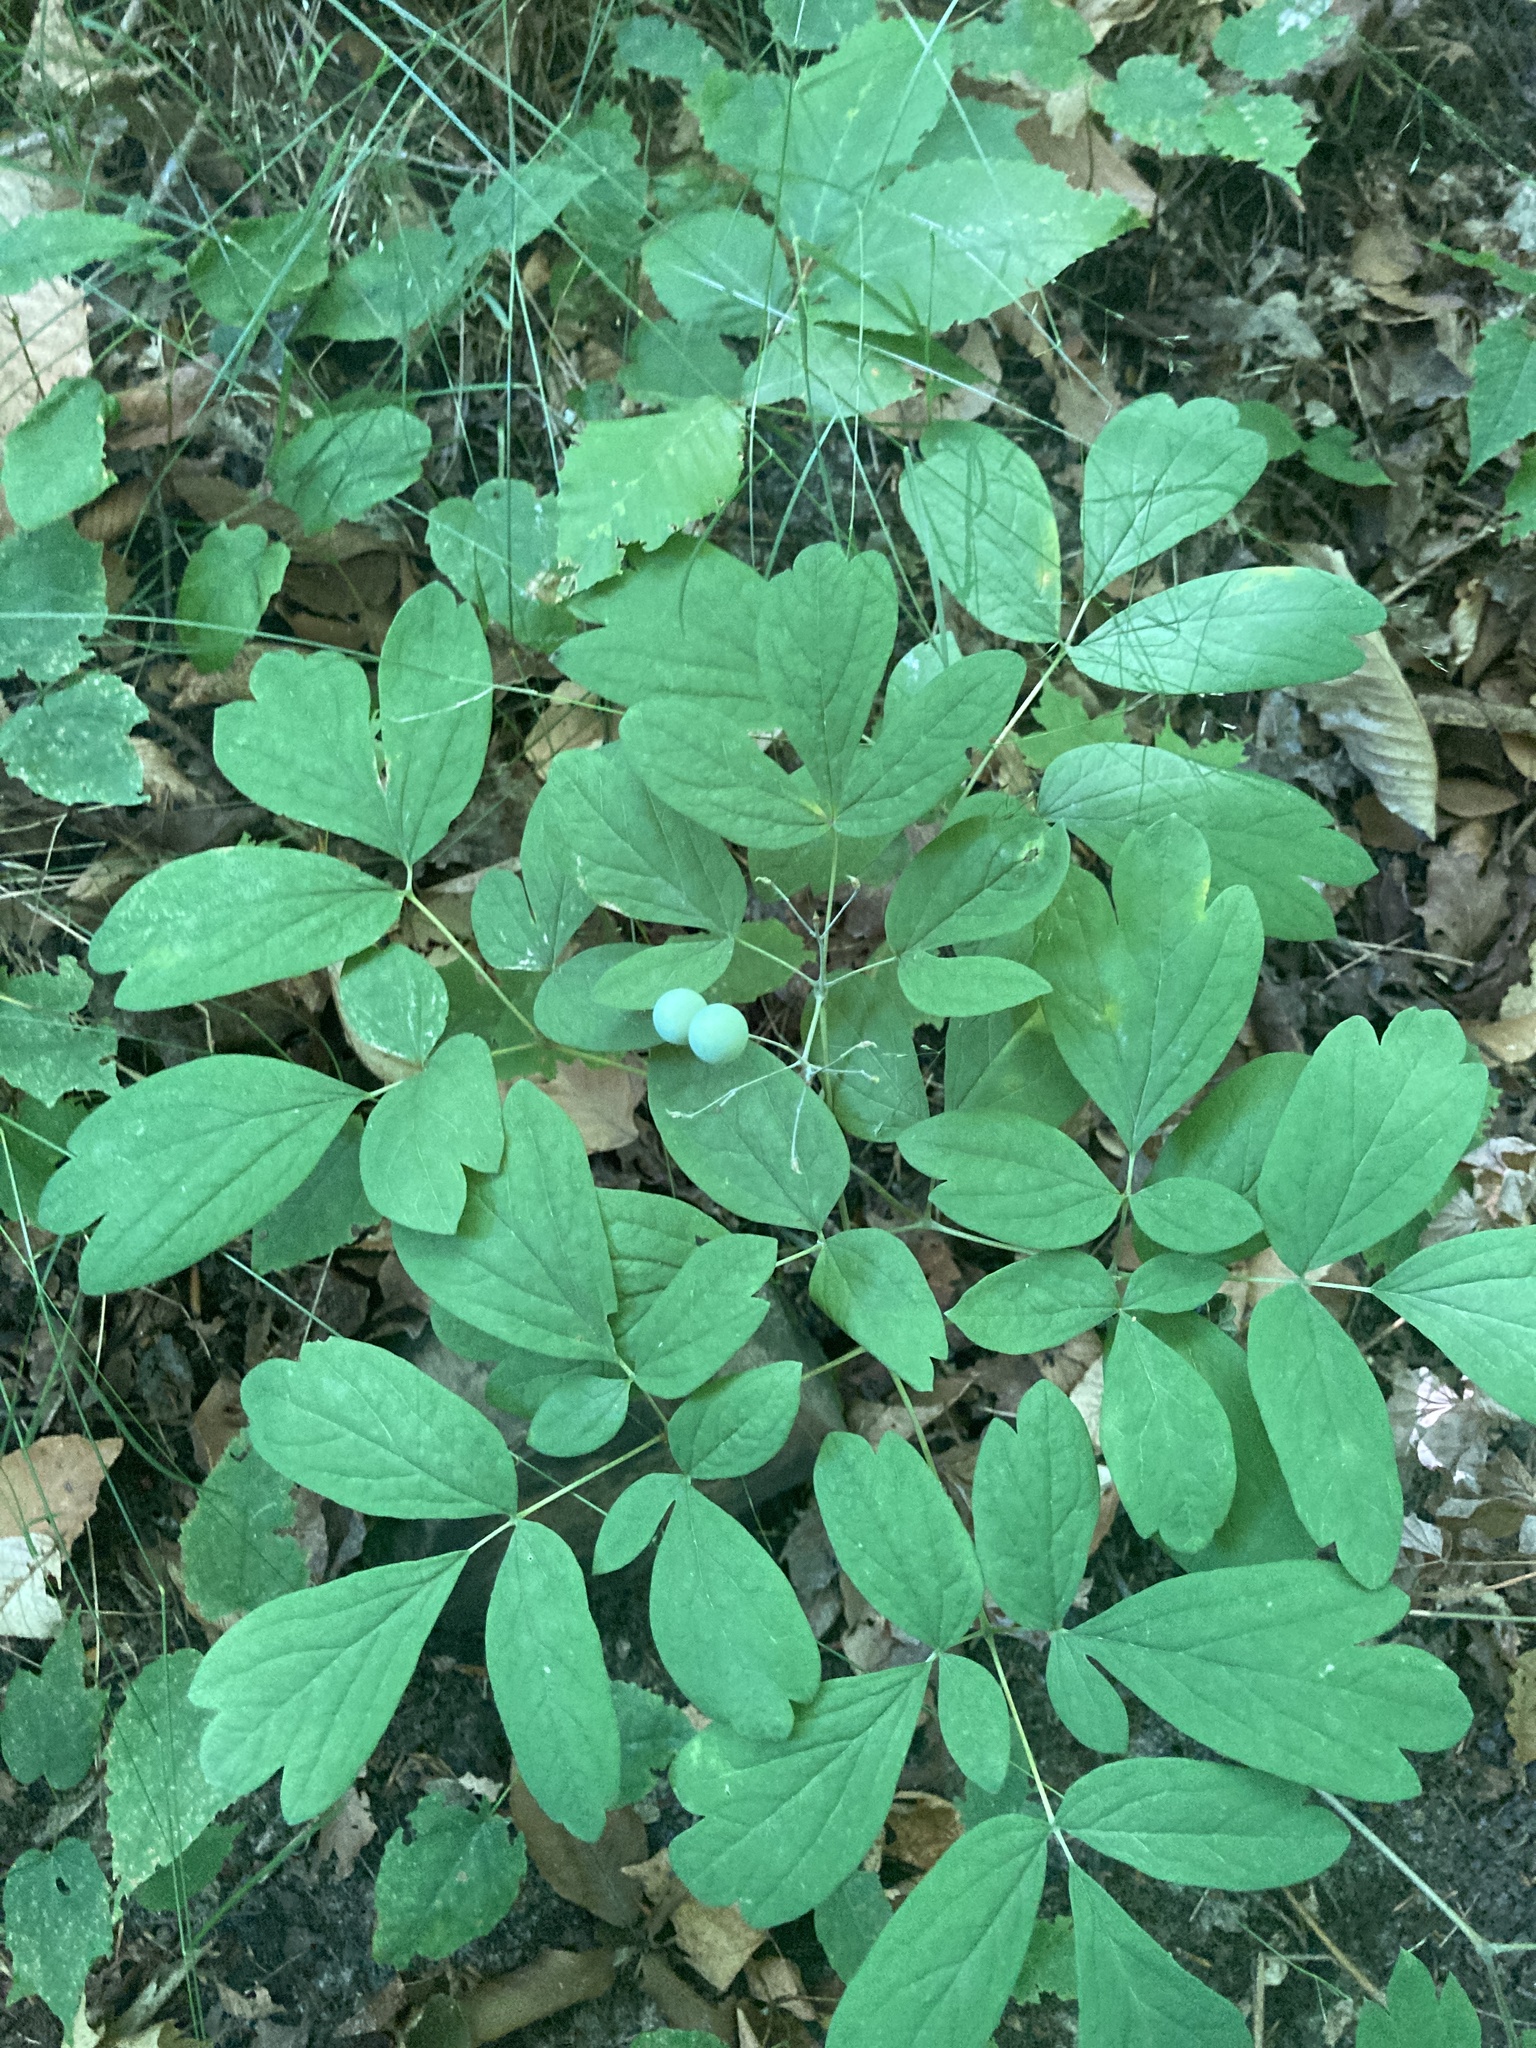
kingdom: Plantae
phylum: Tracheophyta
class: Magnoliopsida
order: Ranunculales
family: Berberidaceae
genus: Caulophyllum
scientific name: Caulophyllum thalictroides
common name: Blue cohosh
